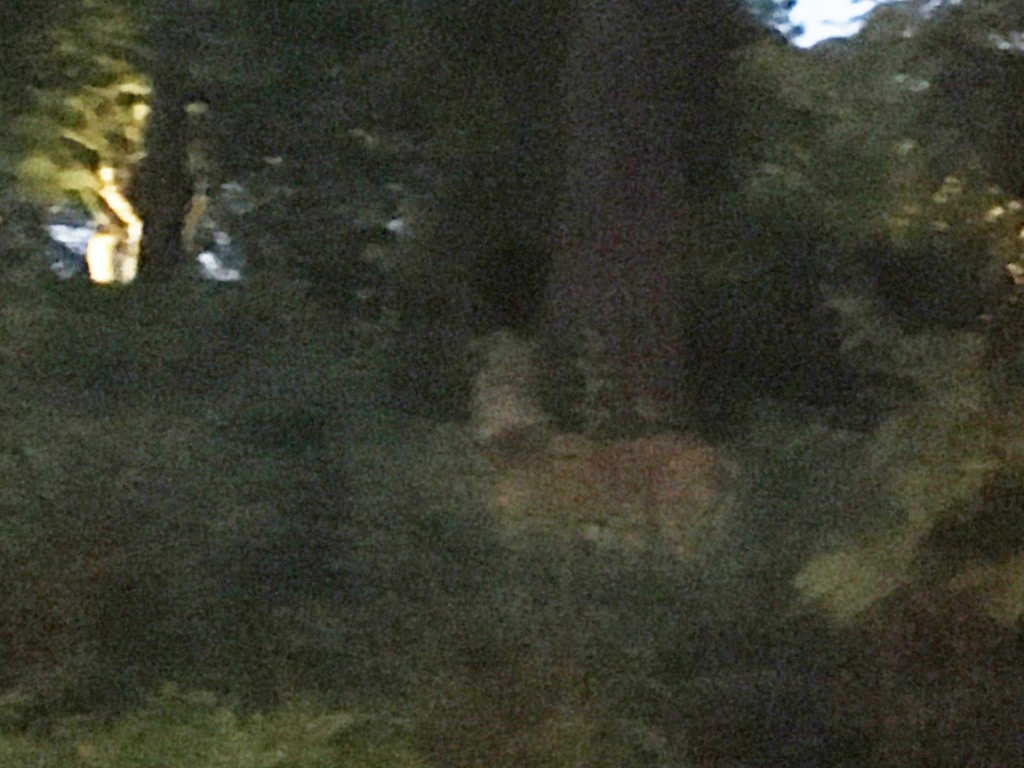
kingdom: Animalia
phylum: Chordata
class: Mammalia
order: Artiodactyla
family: Cervidae
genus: Odocoileus
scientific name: Odocoileus virginianus
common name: White-tailed deer
